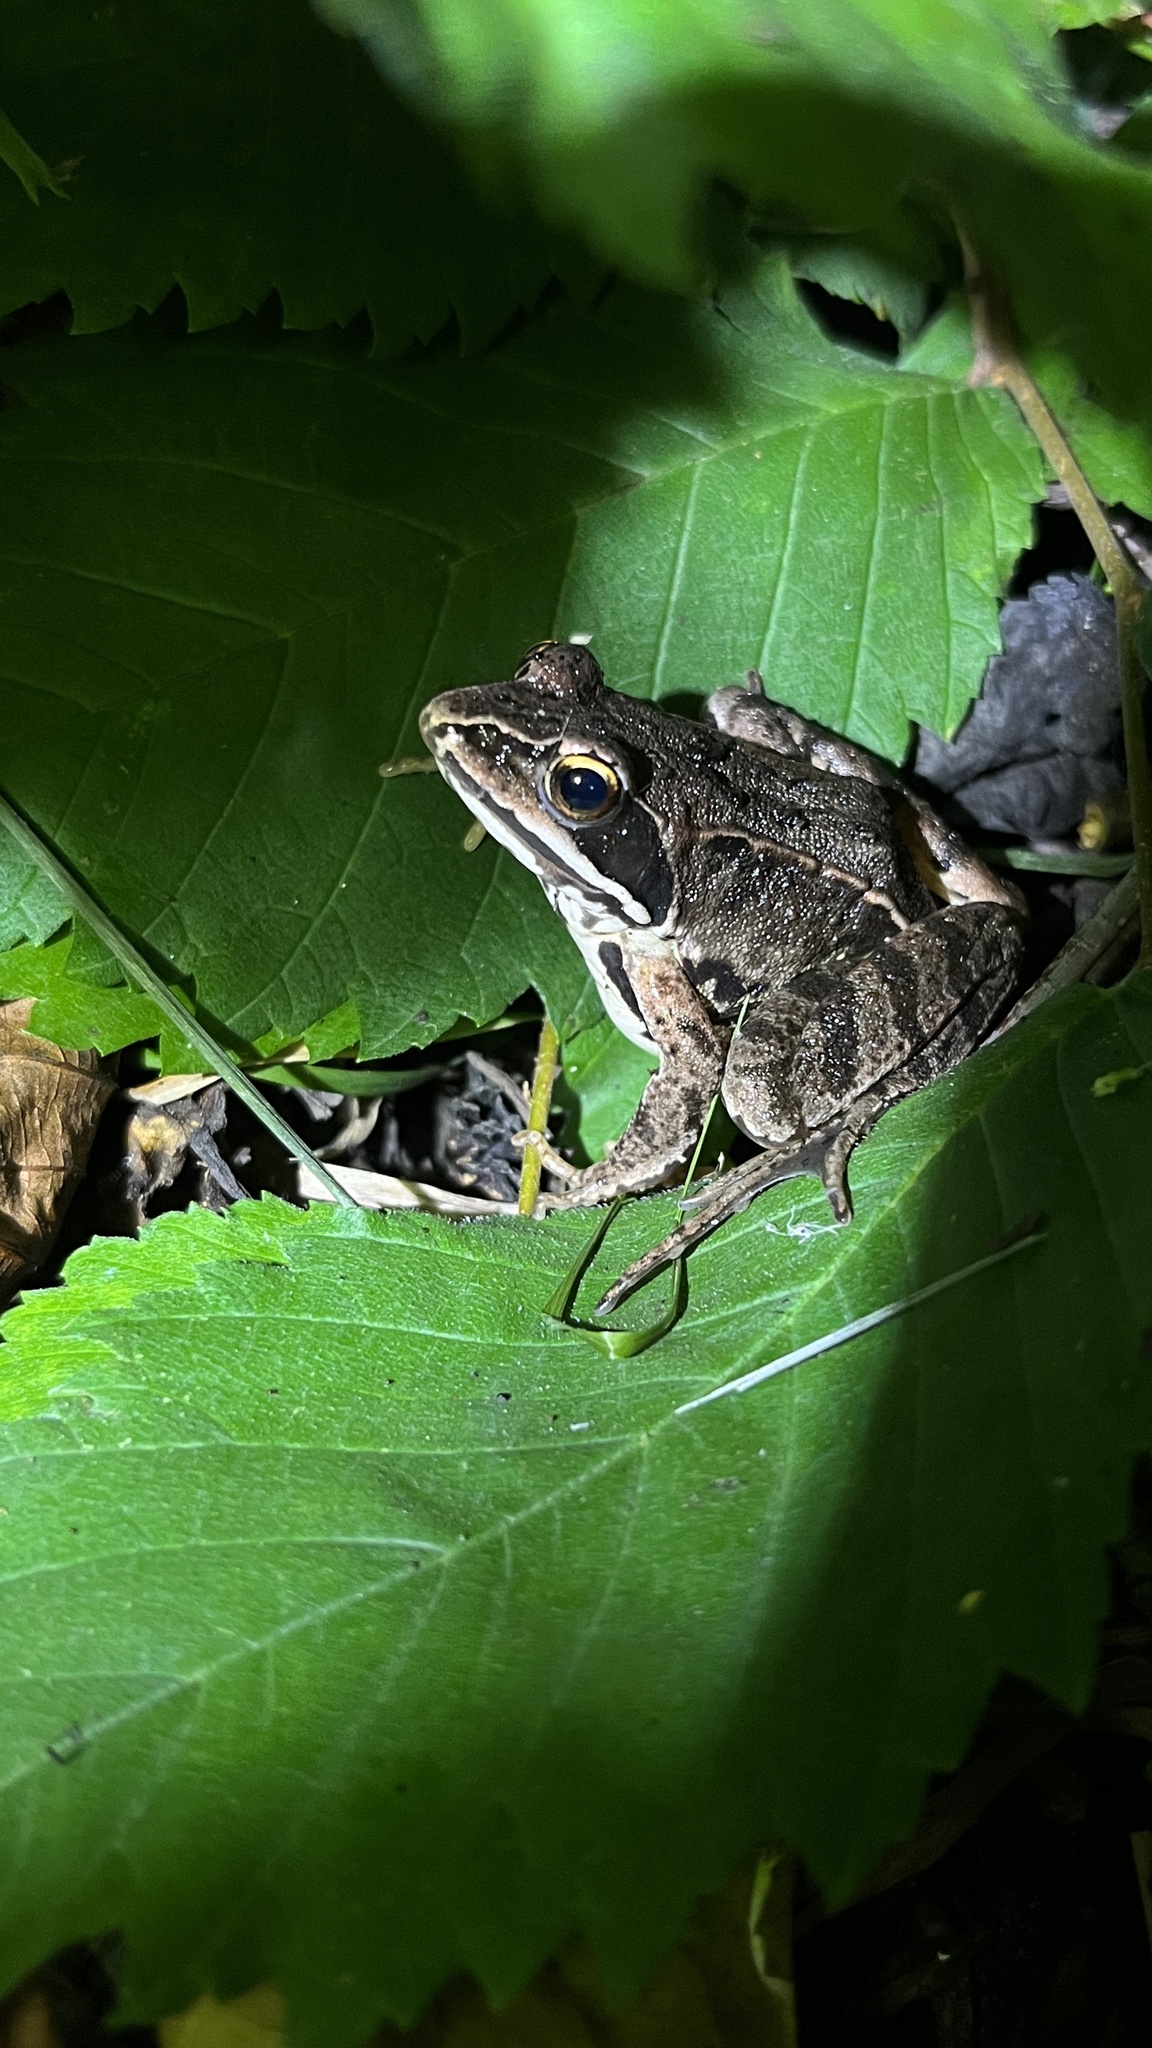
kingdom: Animalia
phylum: Chordata
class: Amphibia
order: Anura
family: Ranidae
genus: Rana
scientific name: Rana arvalis
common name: Moor frog
